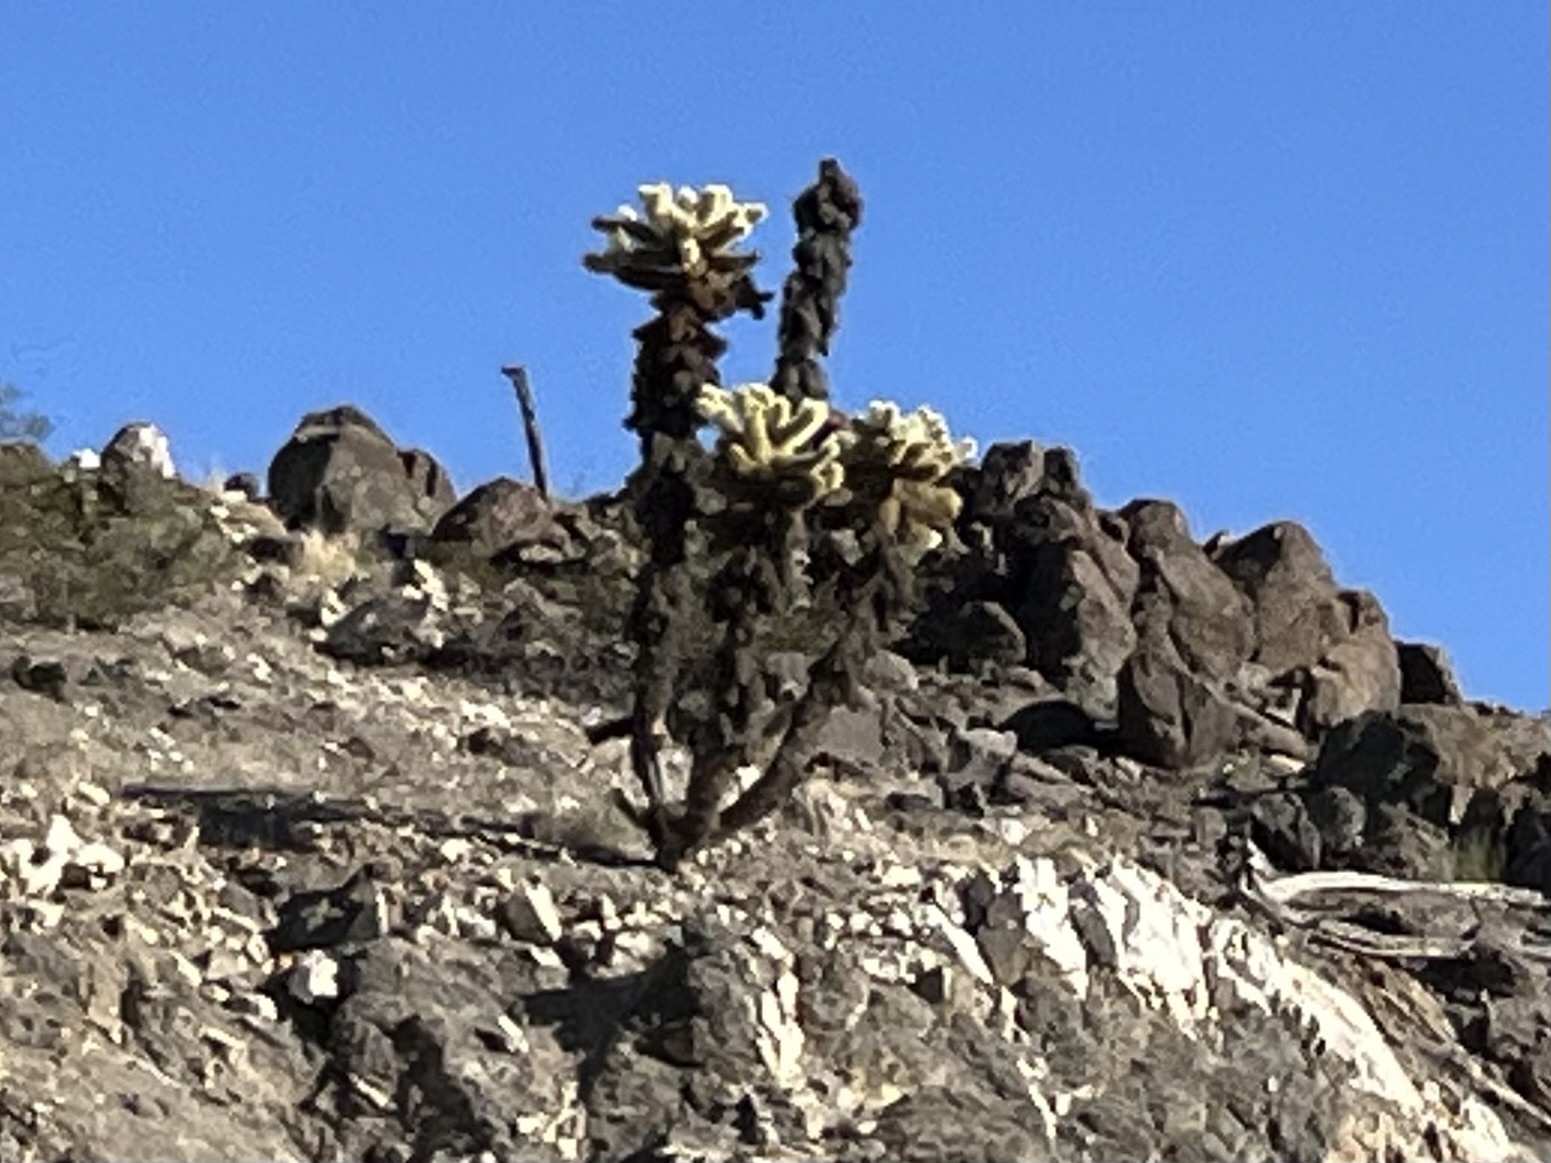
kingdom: Plantae
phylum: Tracheophyta
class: Magnoliopsida
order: Caryophyllales
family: Cactaceae
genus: Cylindropuntia
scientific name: Cylindropuntia fosbergii
